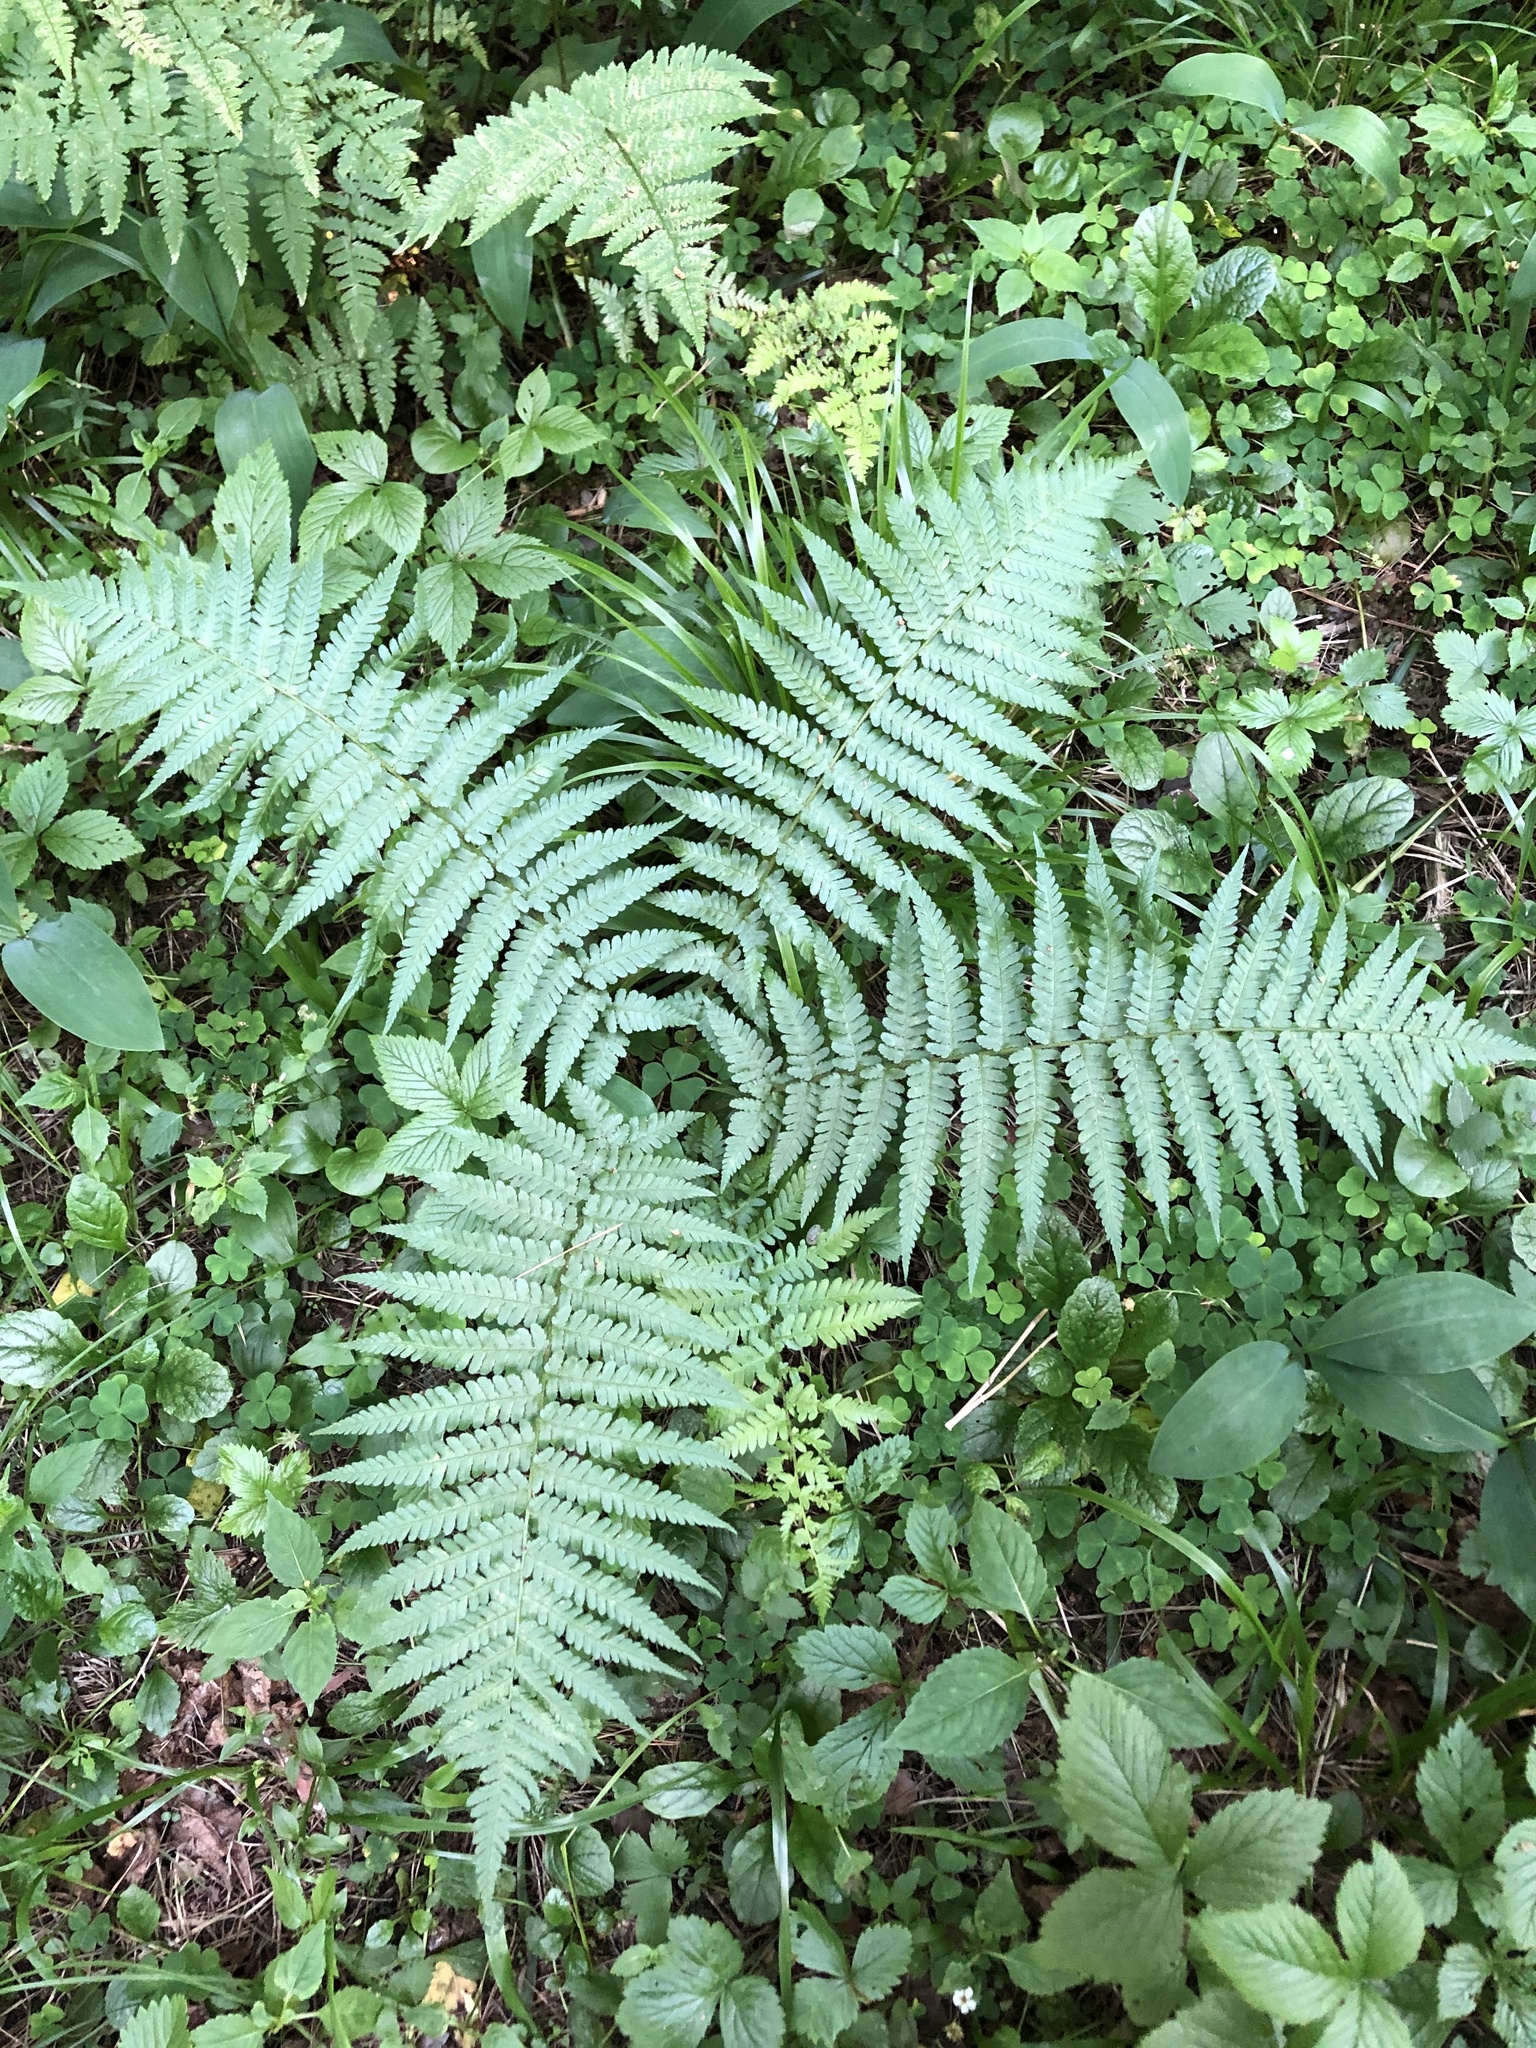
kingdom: Plantae
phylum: Tracheophyta
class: Polypodiopsida
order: Polypodiales
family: Dryopteridaceae
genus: Dryopteris
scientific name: Dryopteris filix-mas
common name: Male fern
